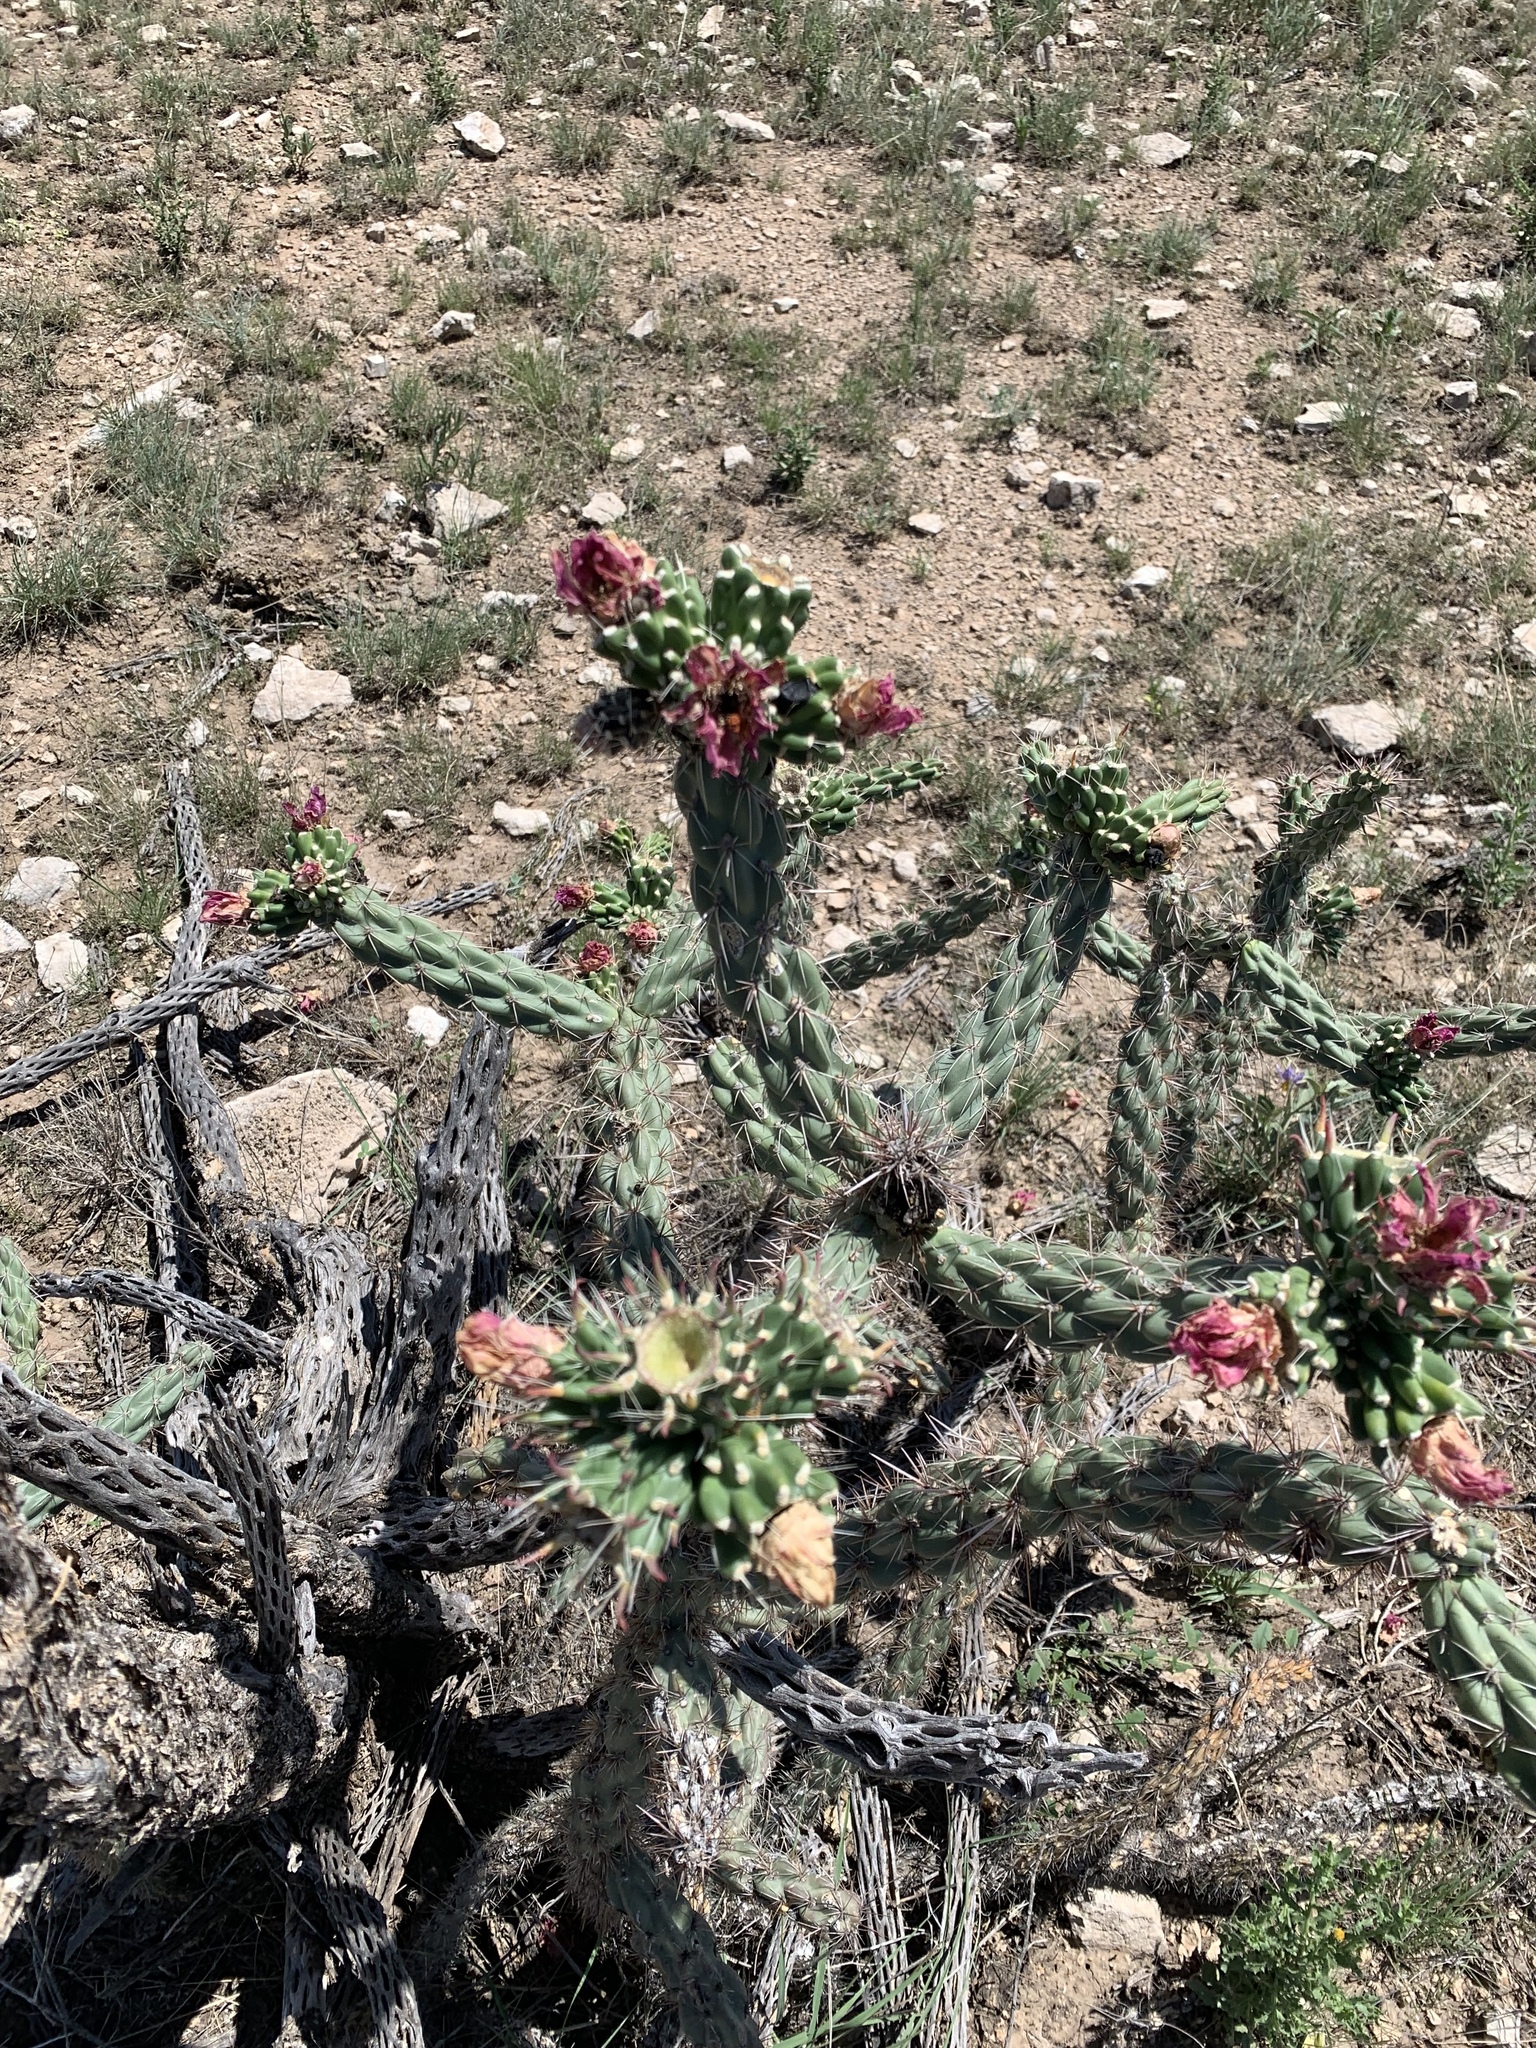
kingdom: Plantae
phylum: Tracheophyta
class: Magnoliopsida
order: Caryophyllales
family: Cactaceae
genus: Cylindropuntia
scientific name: Cylindropuntia imbricata
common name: Candelabrum cactus
